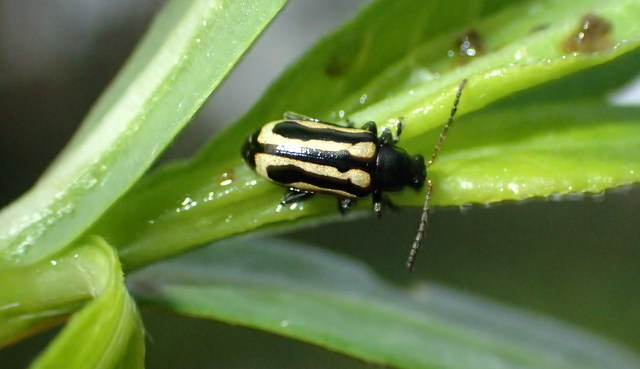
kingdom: Animalia
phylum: Arthropoda
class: Insecta
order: Coleoptera
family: Chrysomelidae
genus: Agasicles
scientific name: Agasicles hygrophila
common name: Alligatorweed flea beetle
